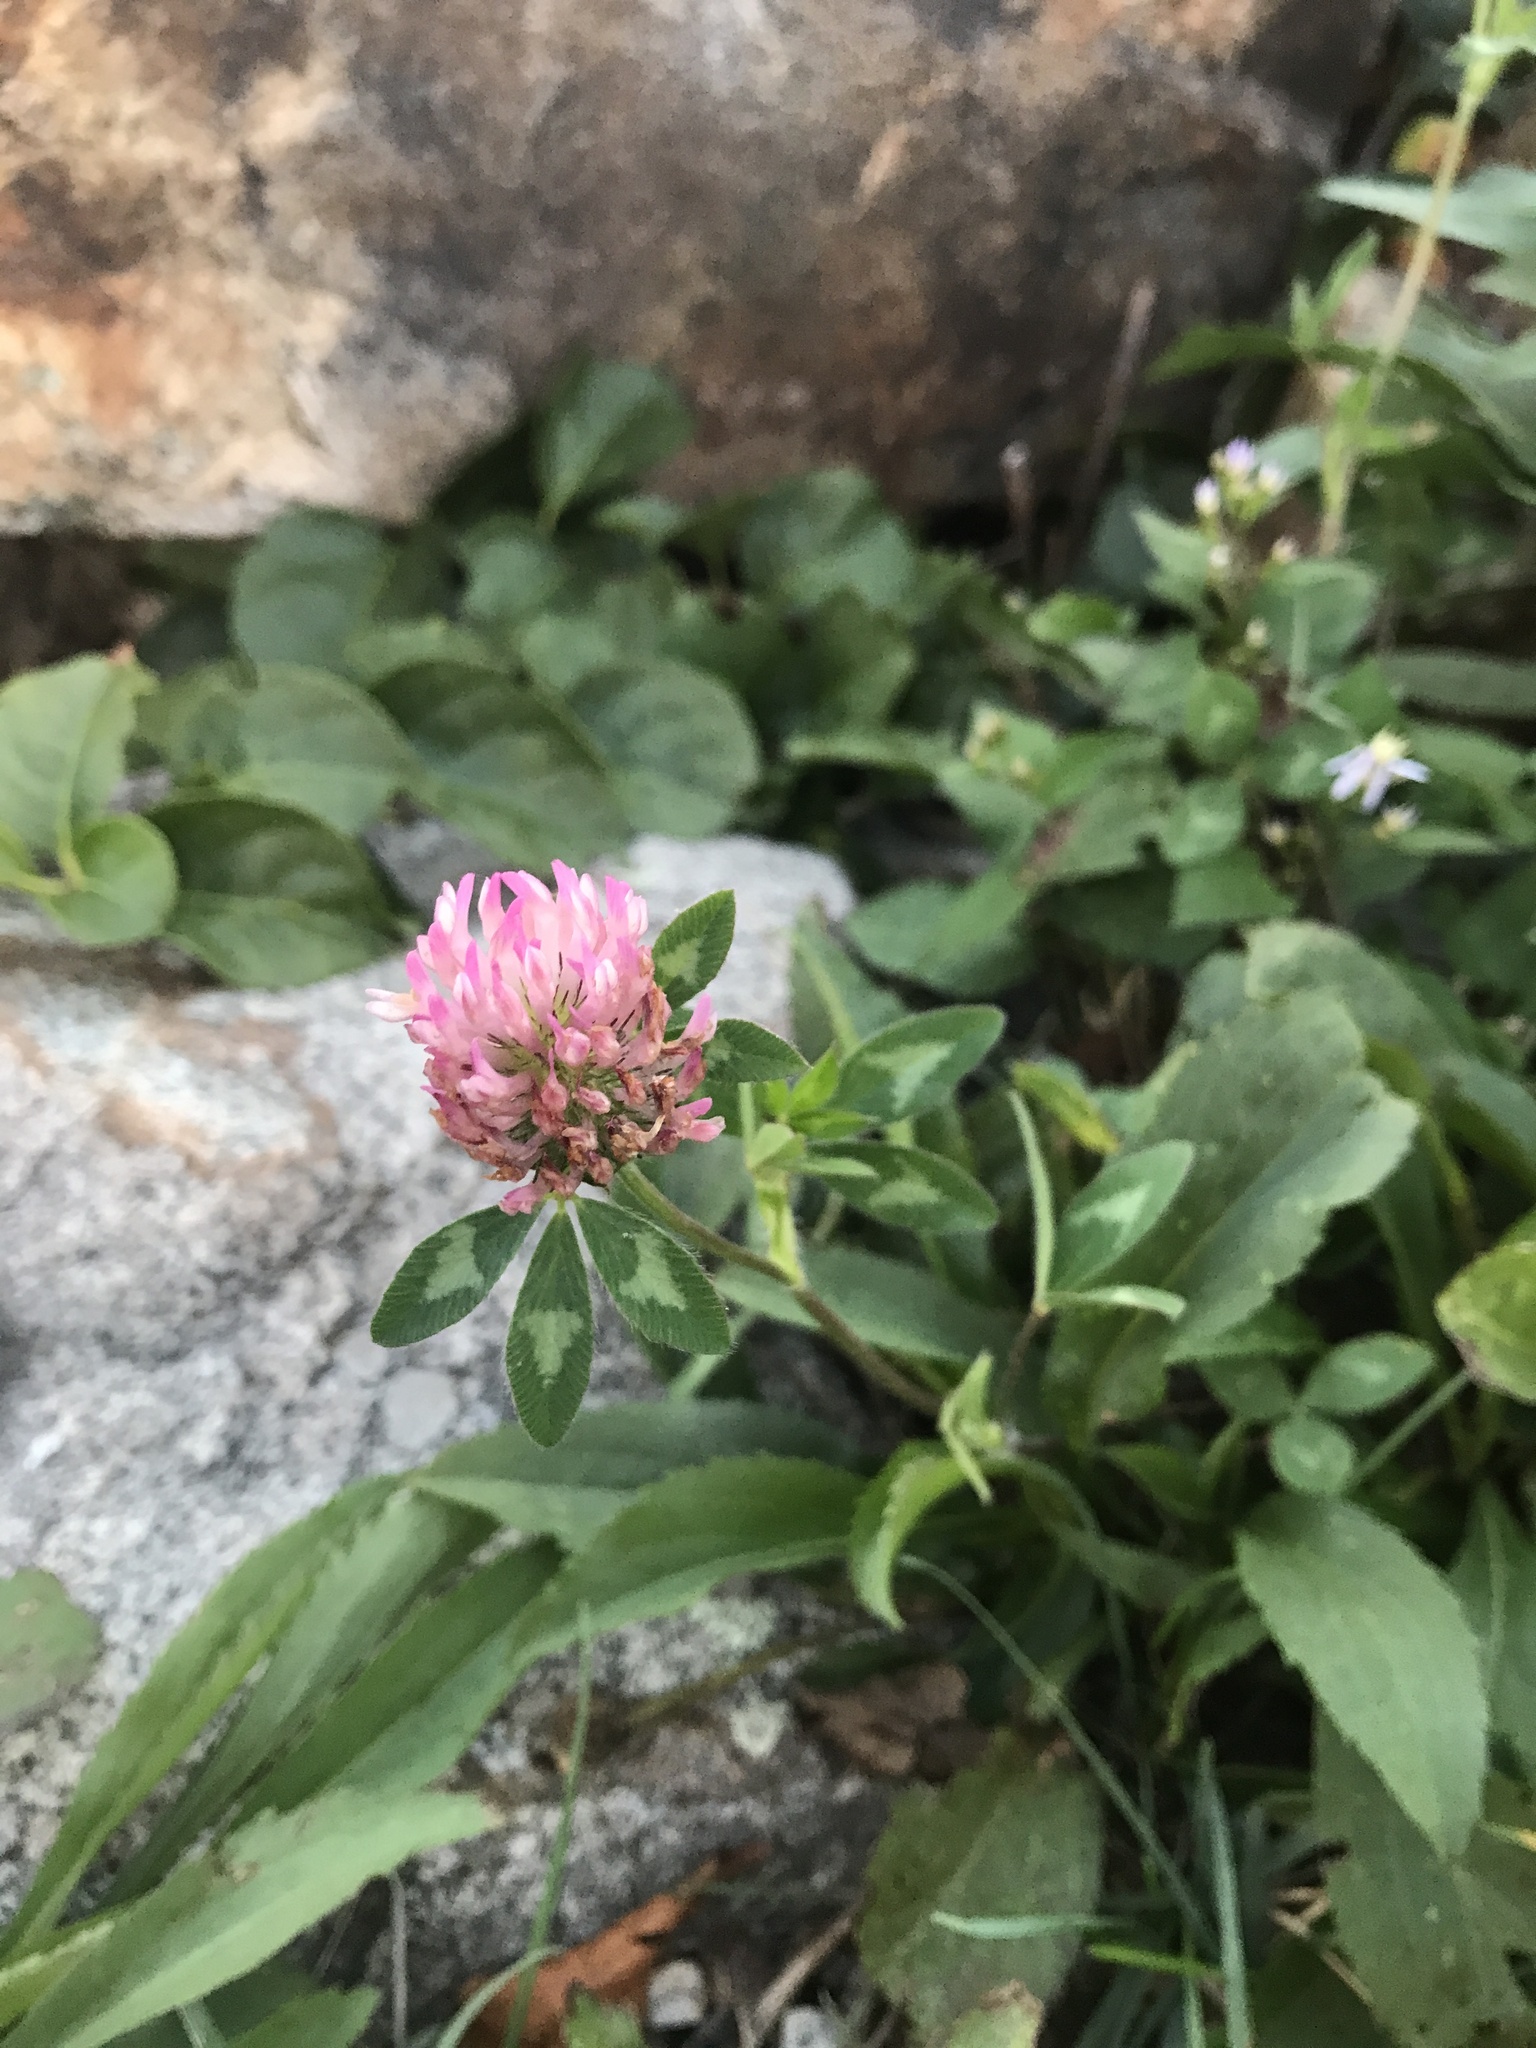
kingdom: Plantae
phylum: Tracheophyta
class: Magnoliopsida
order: Fabales
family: Fabaceae
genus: Trifolium
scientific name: Trifolium pratense
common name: Red clover
